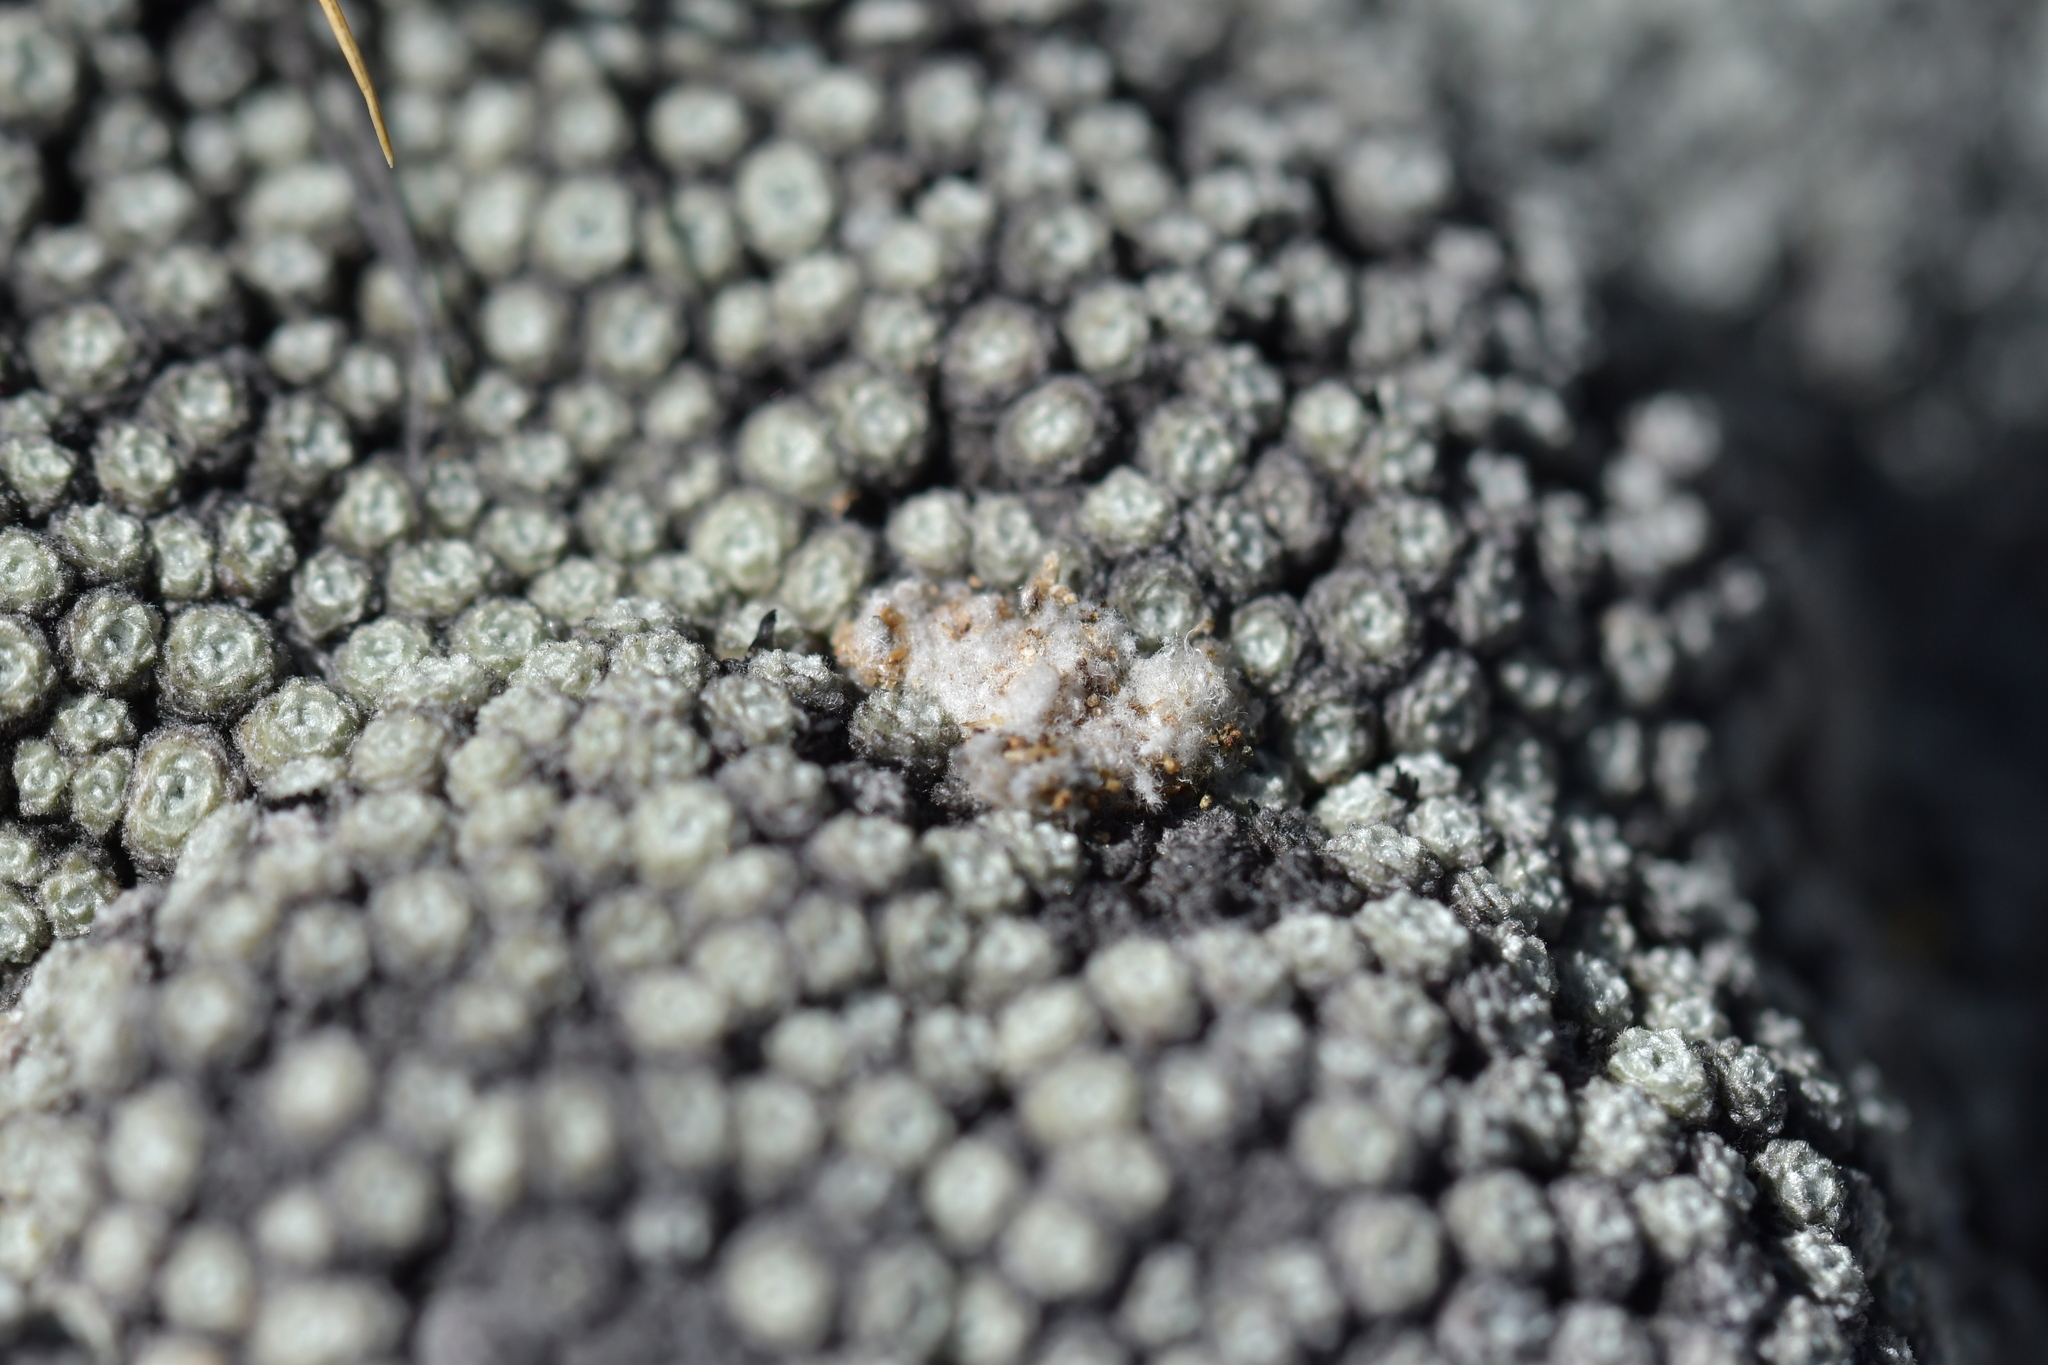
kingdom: Plantae
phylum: Tracheophyta
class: Magnoliopsida
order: Asterales
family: Asteraceae
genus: Raoulia
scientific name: Raoulia bryoides
